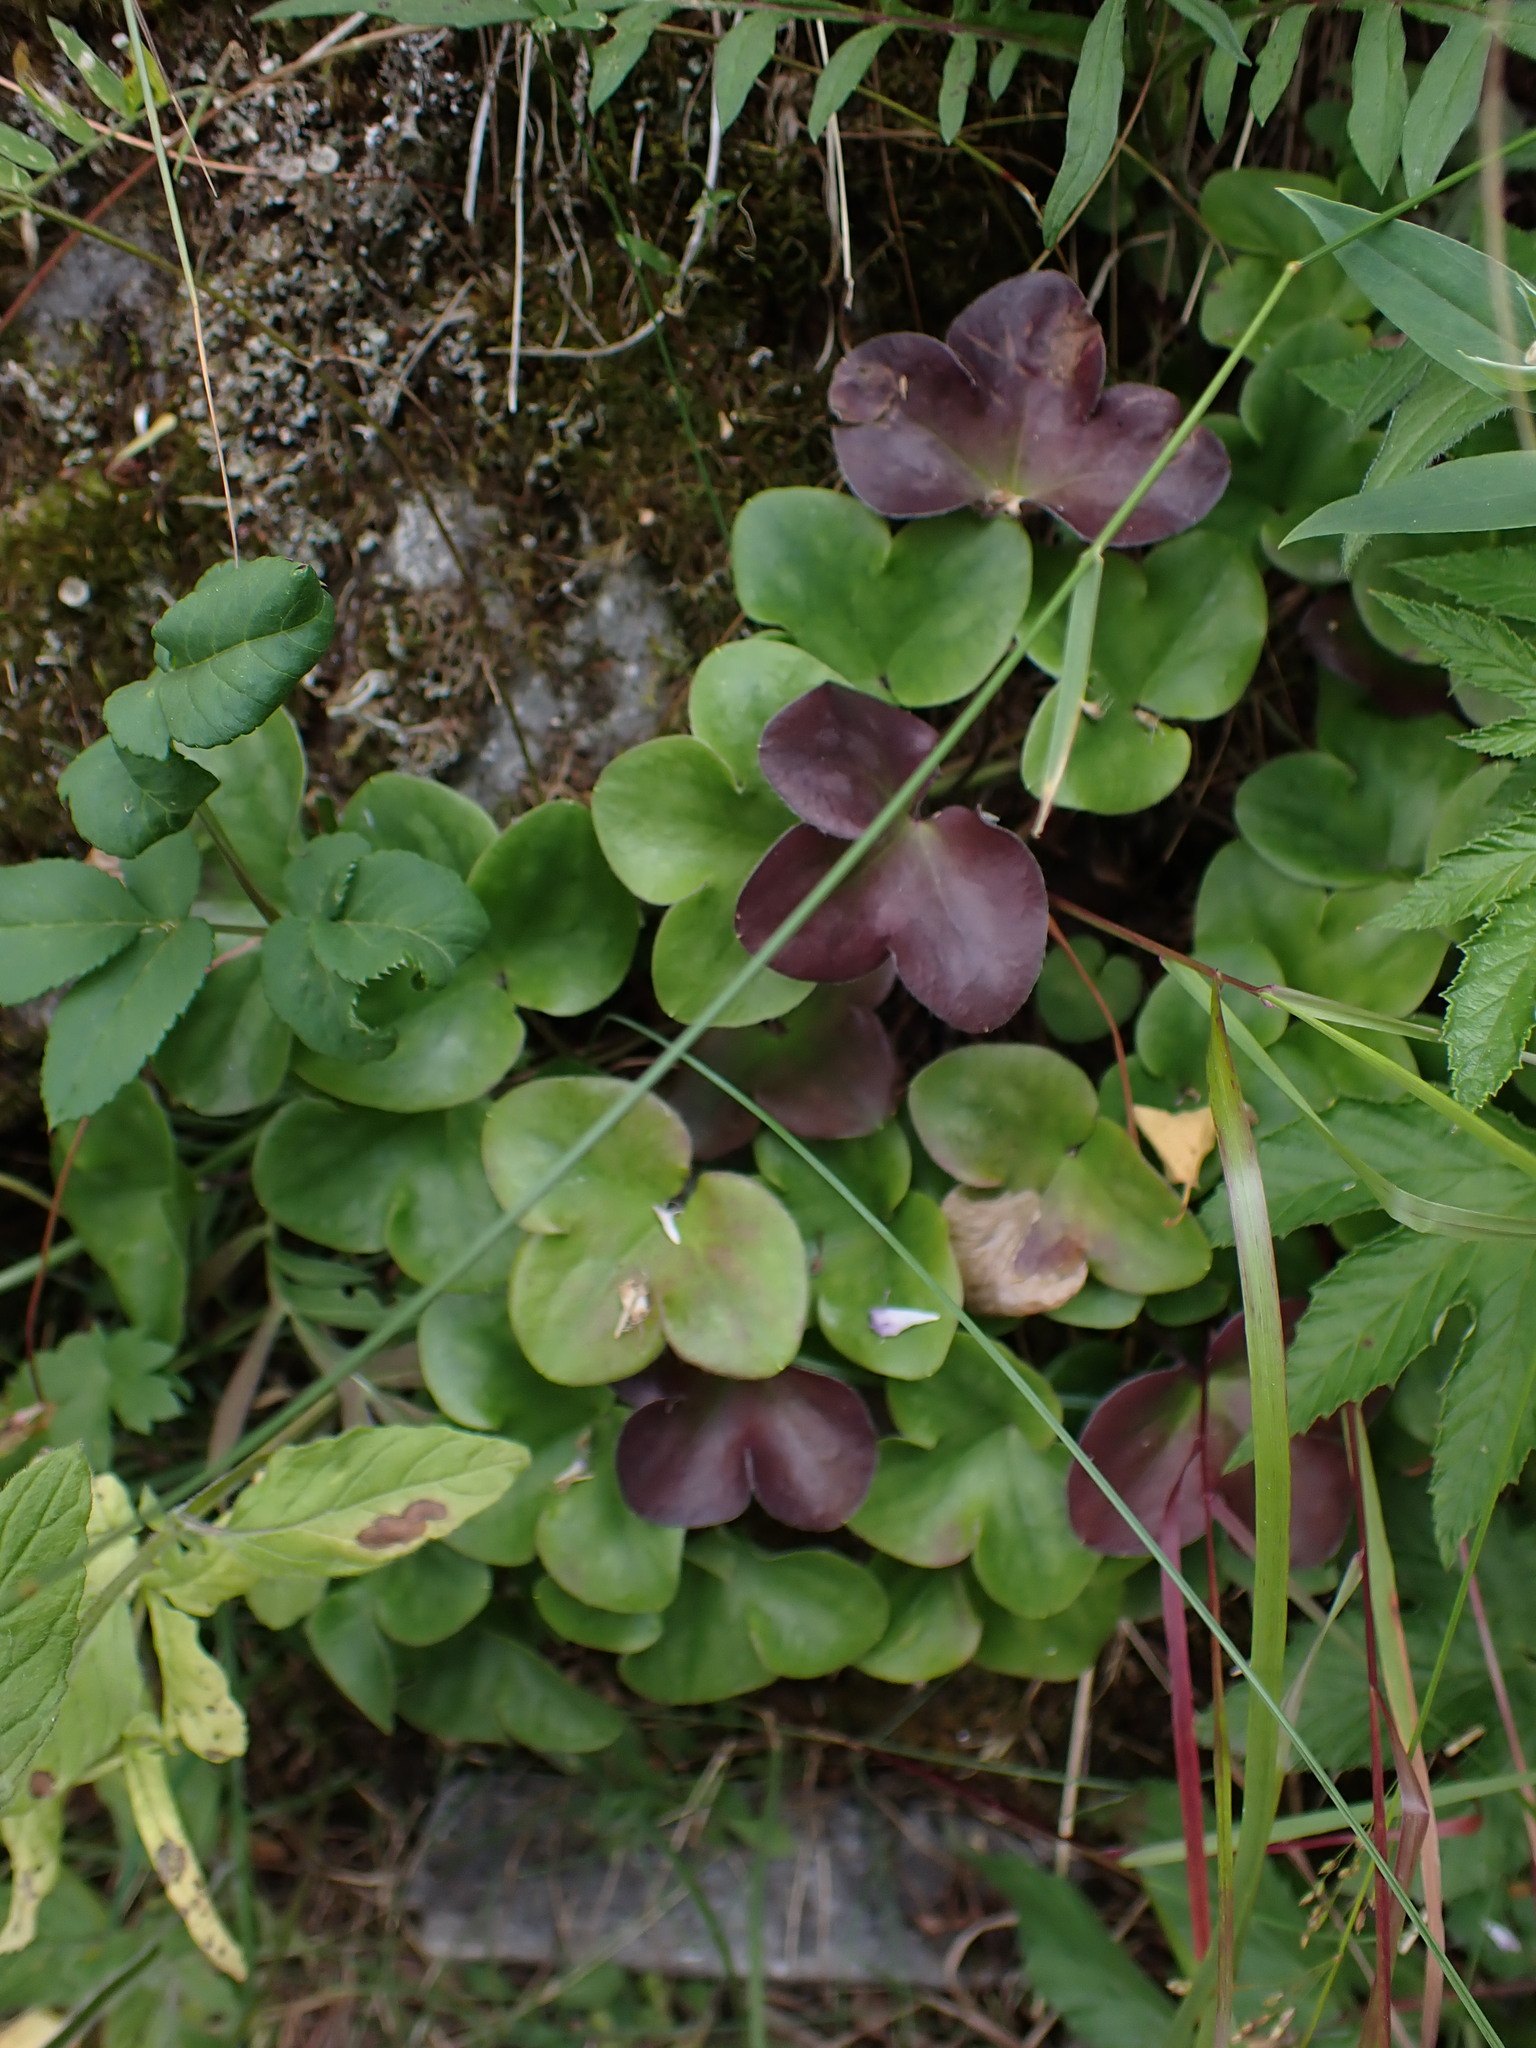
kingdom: Plantae
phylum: Tracheophyta
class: Magnoliopsida
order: Ranunculales
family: Ranunculaceae
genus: Hepatica
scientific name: Hepatica nobilis
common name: Liverleaf
